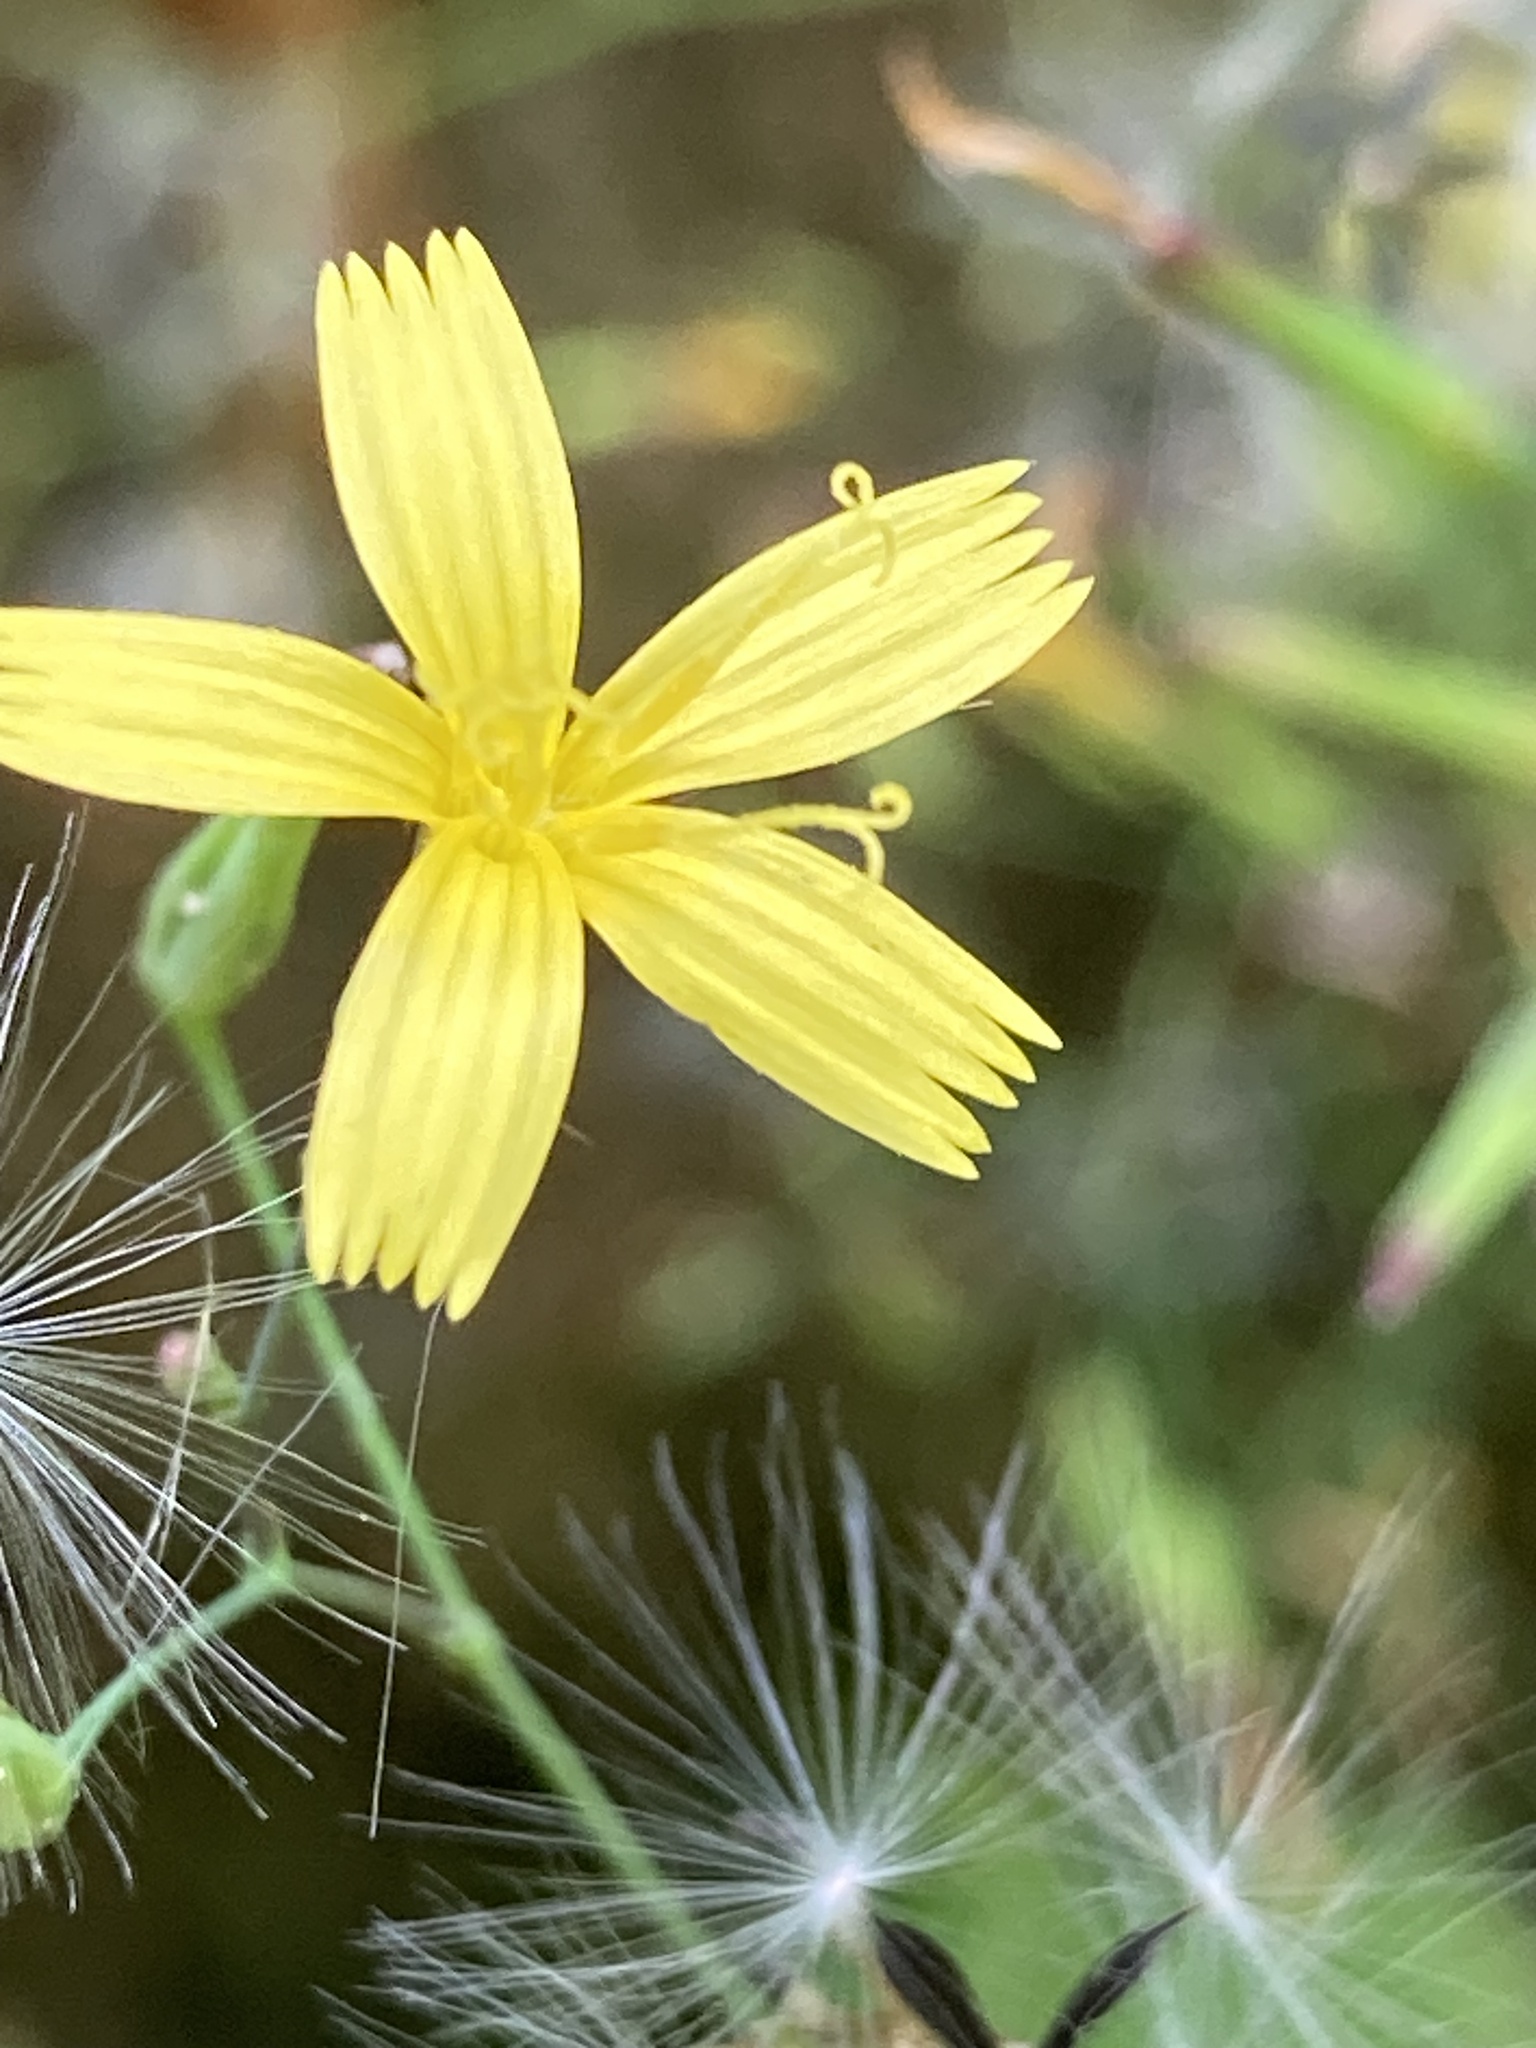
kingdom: Plantae
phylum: Tracheophyta
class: Magnoliopsida
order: Asterales
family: Asteraceae
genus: Mycelis
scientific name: Mycelis muralis
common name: Wall lettuce
